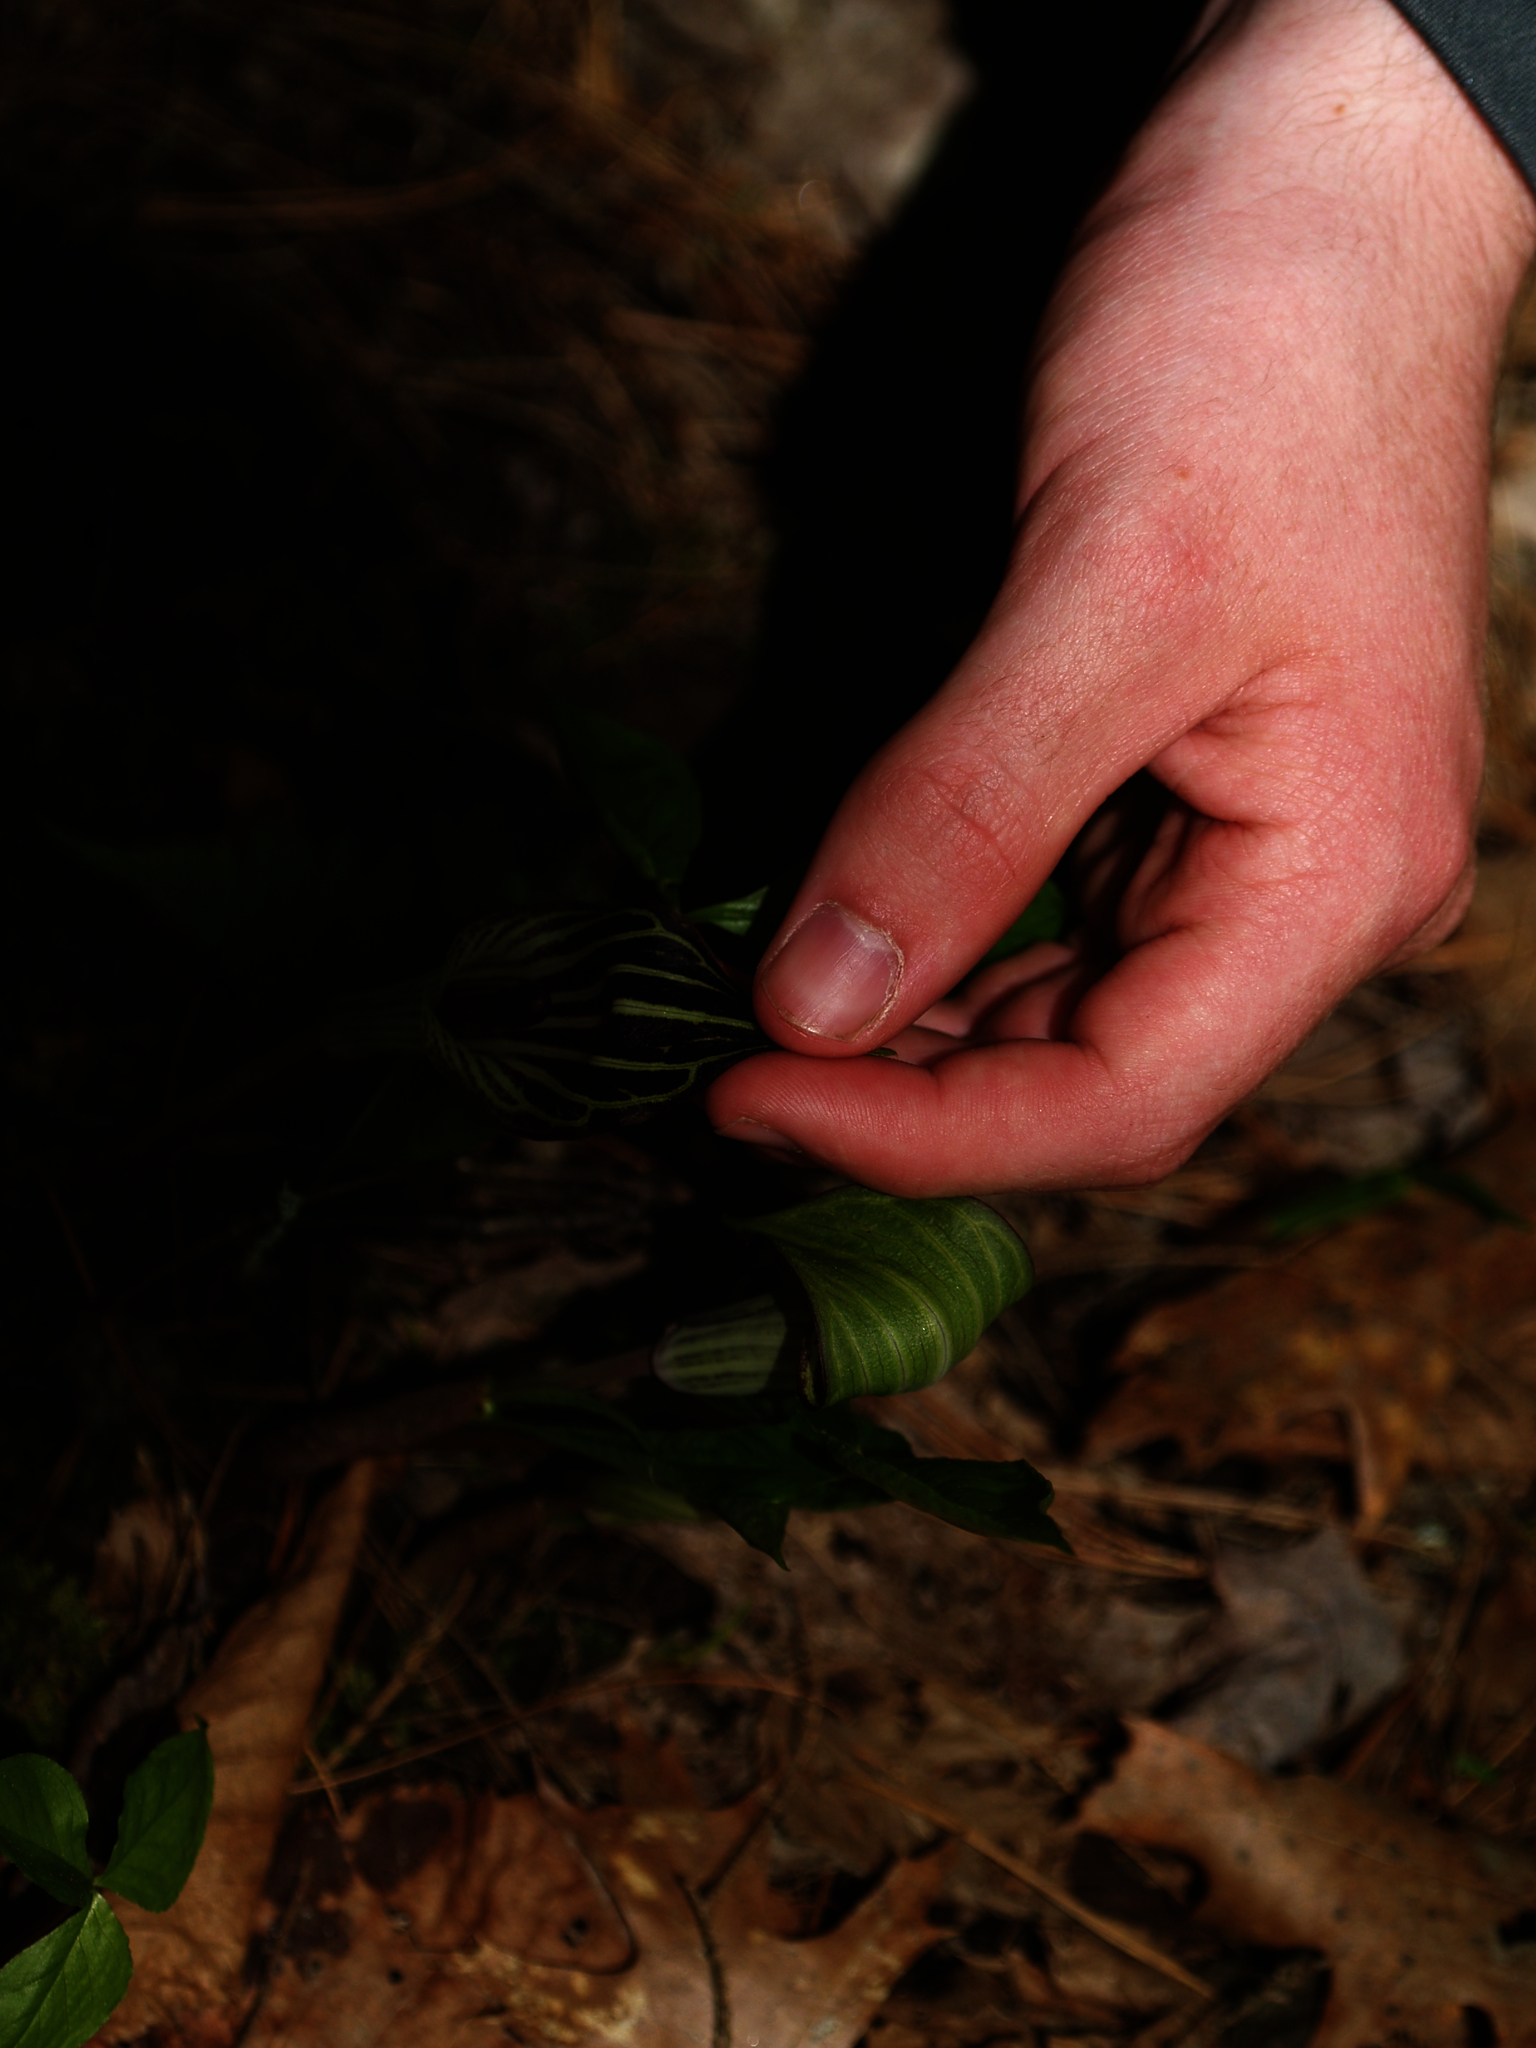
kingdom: Plantae
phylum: Tracheophyta
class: Liliopsida
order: Alismatales
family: Araceae
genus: Arisaema
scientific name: Arisaema triphyllum
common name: Jack-in-the-pulpit
